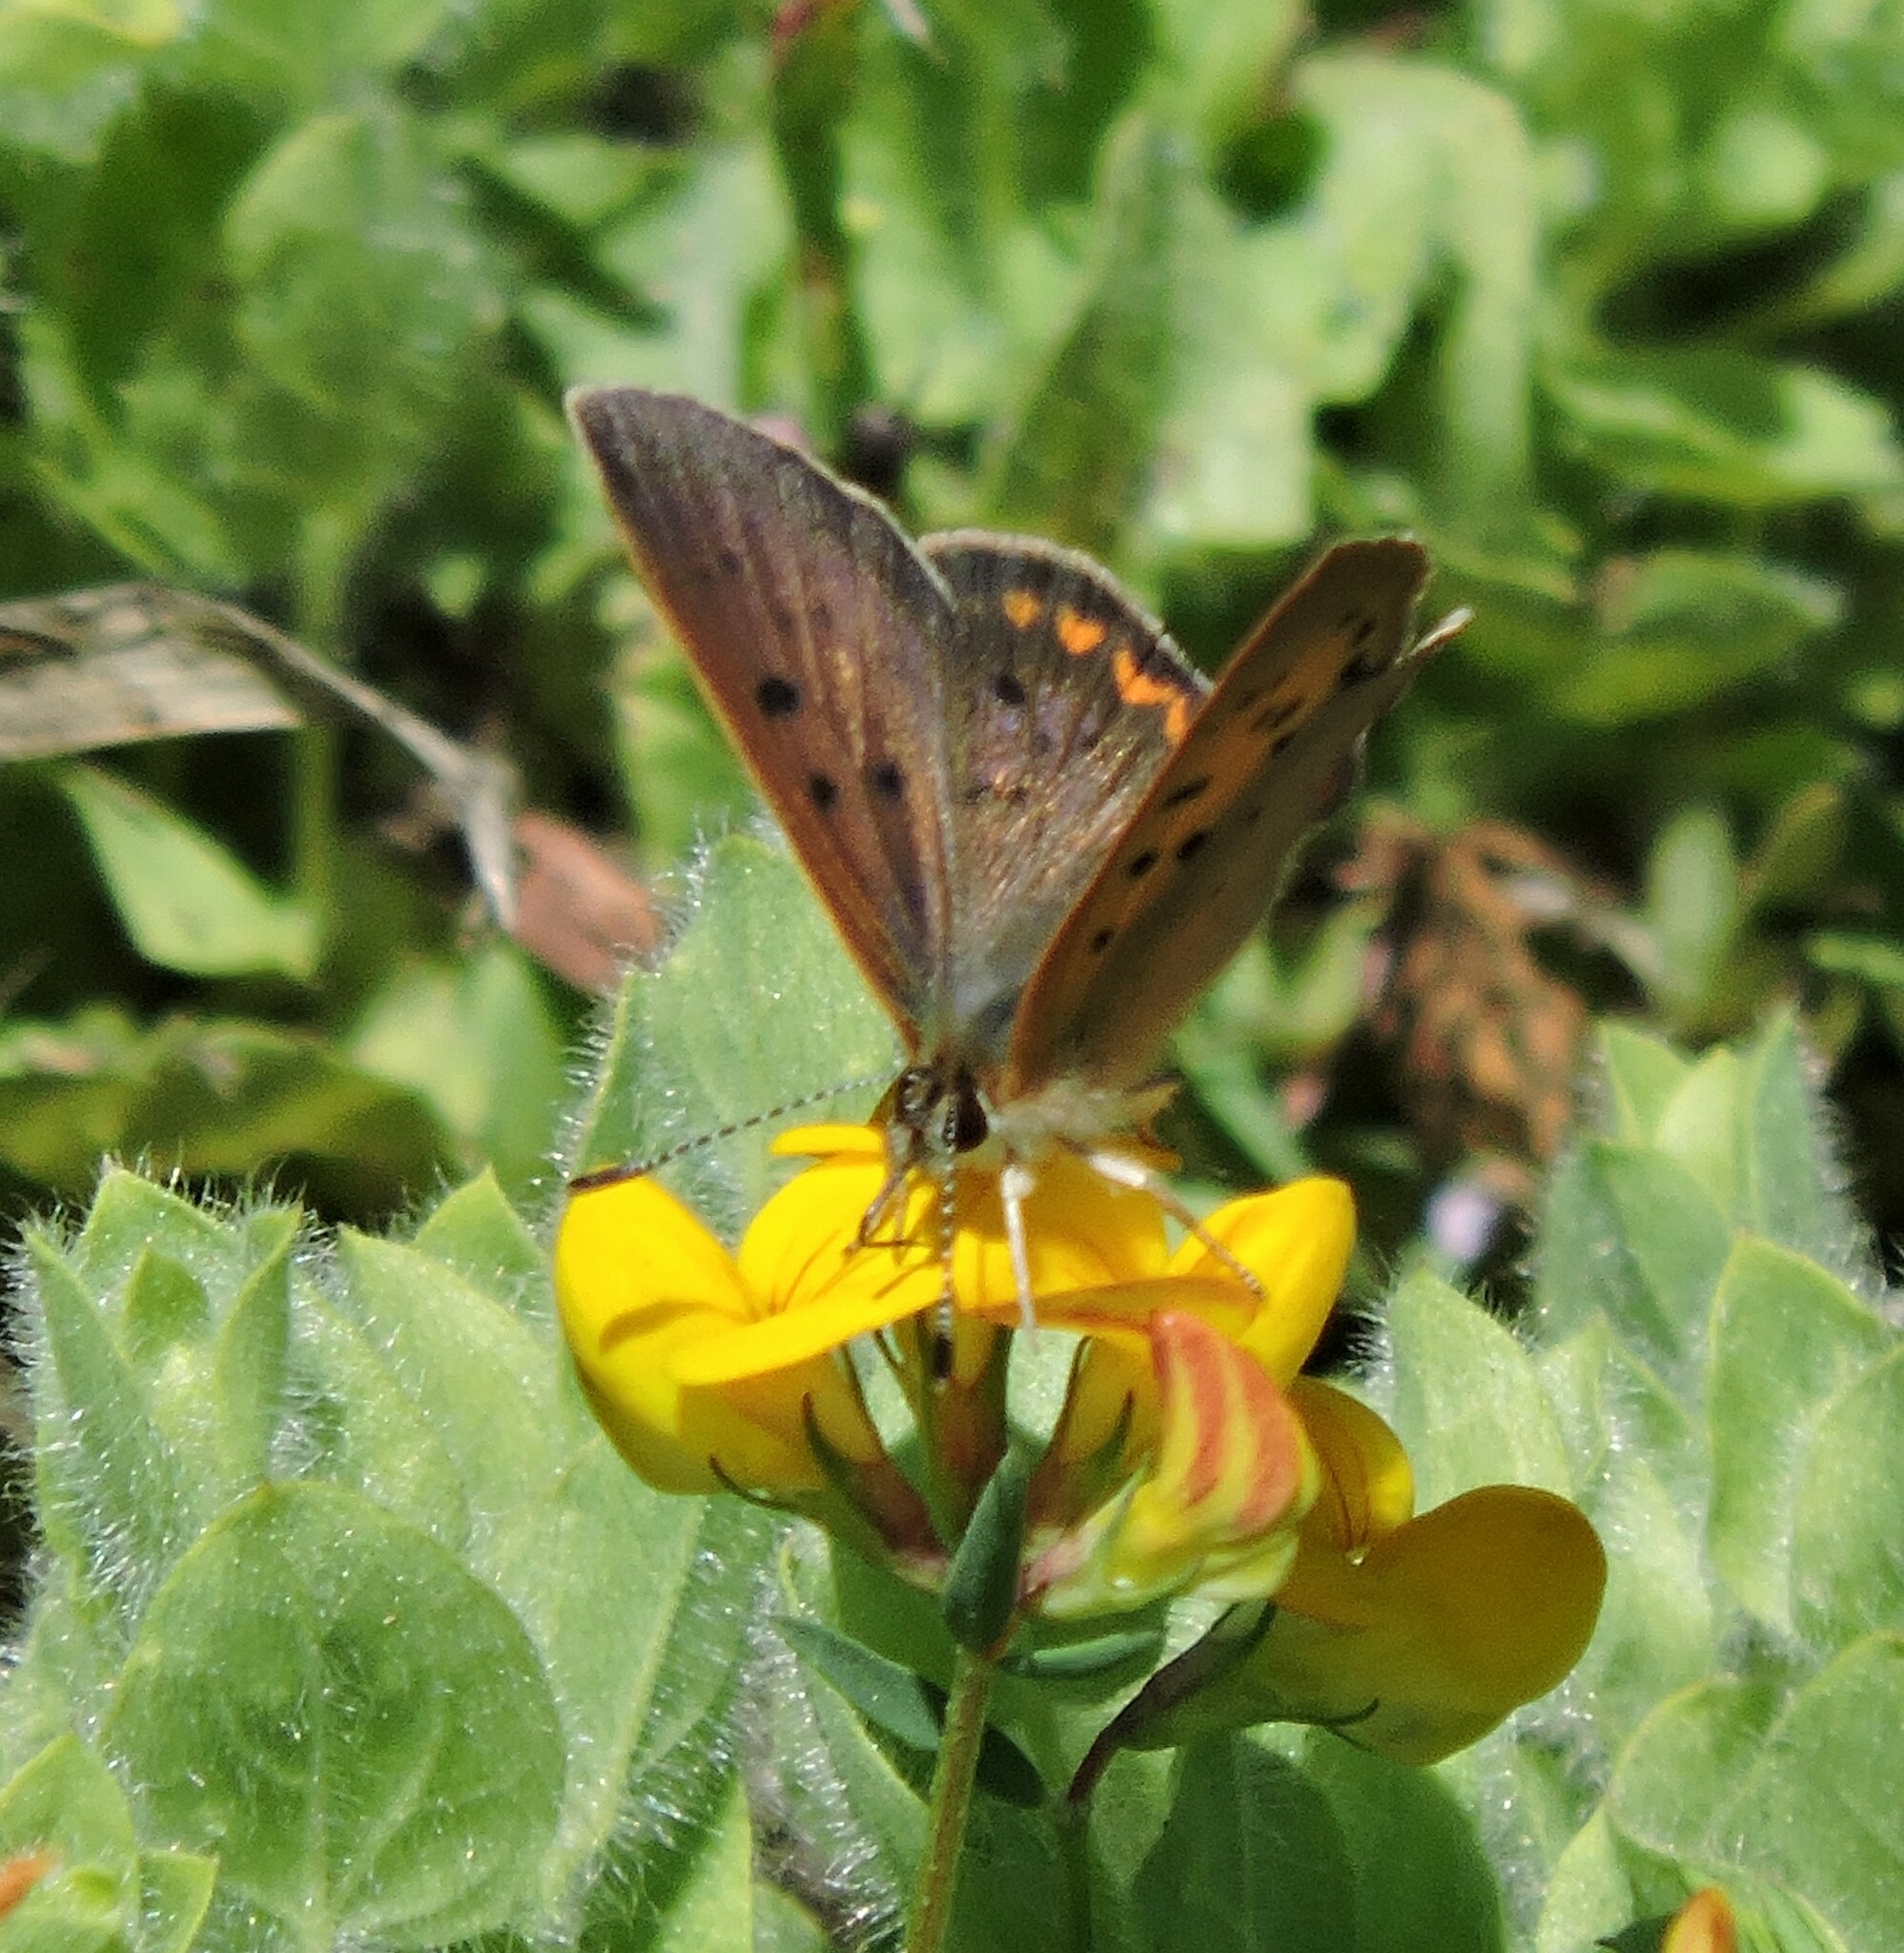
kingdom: Animalia
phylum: Arthropoda
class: Insecta
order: Lepidoptera
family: Lycaenidae
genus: Tharsalea
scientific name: Tharsalea helloides
